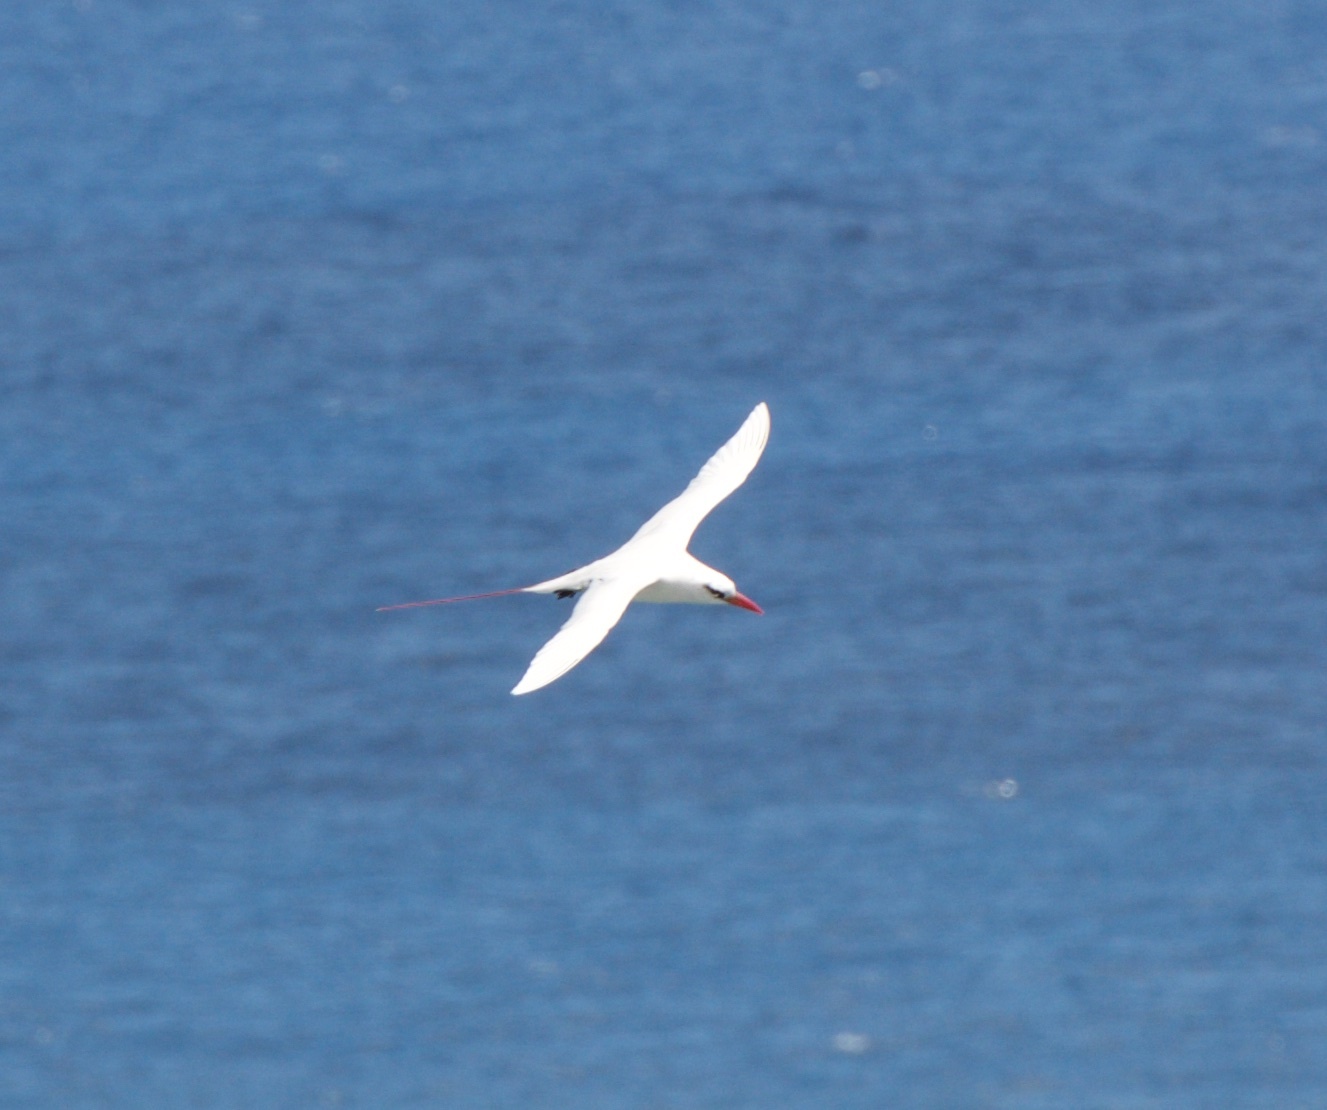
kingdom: Animalia
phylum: Chordata
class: Aves
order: Phaethontiformes
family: Phaethontidae
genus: Phaethon
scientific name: Phaethon rubricauda
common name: Red-tailed tropicbird
